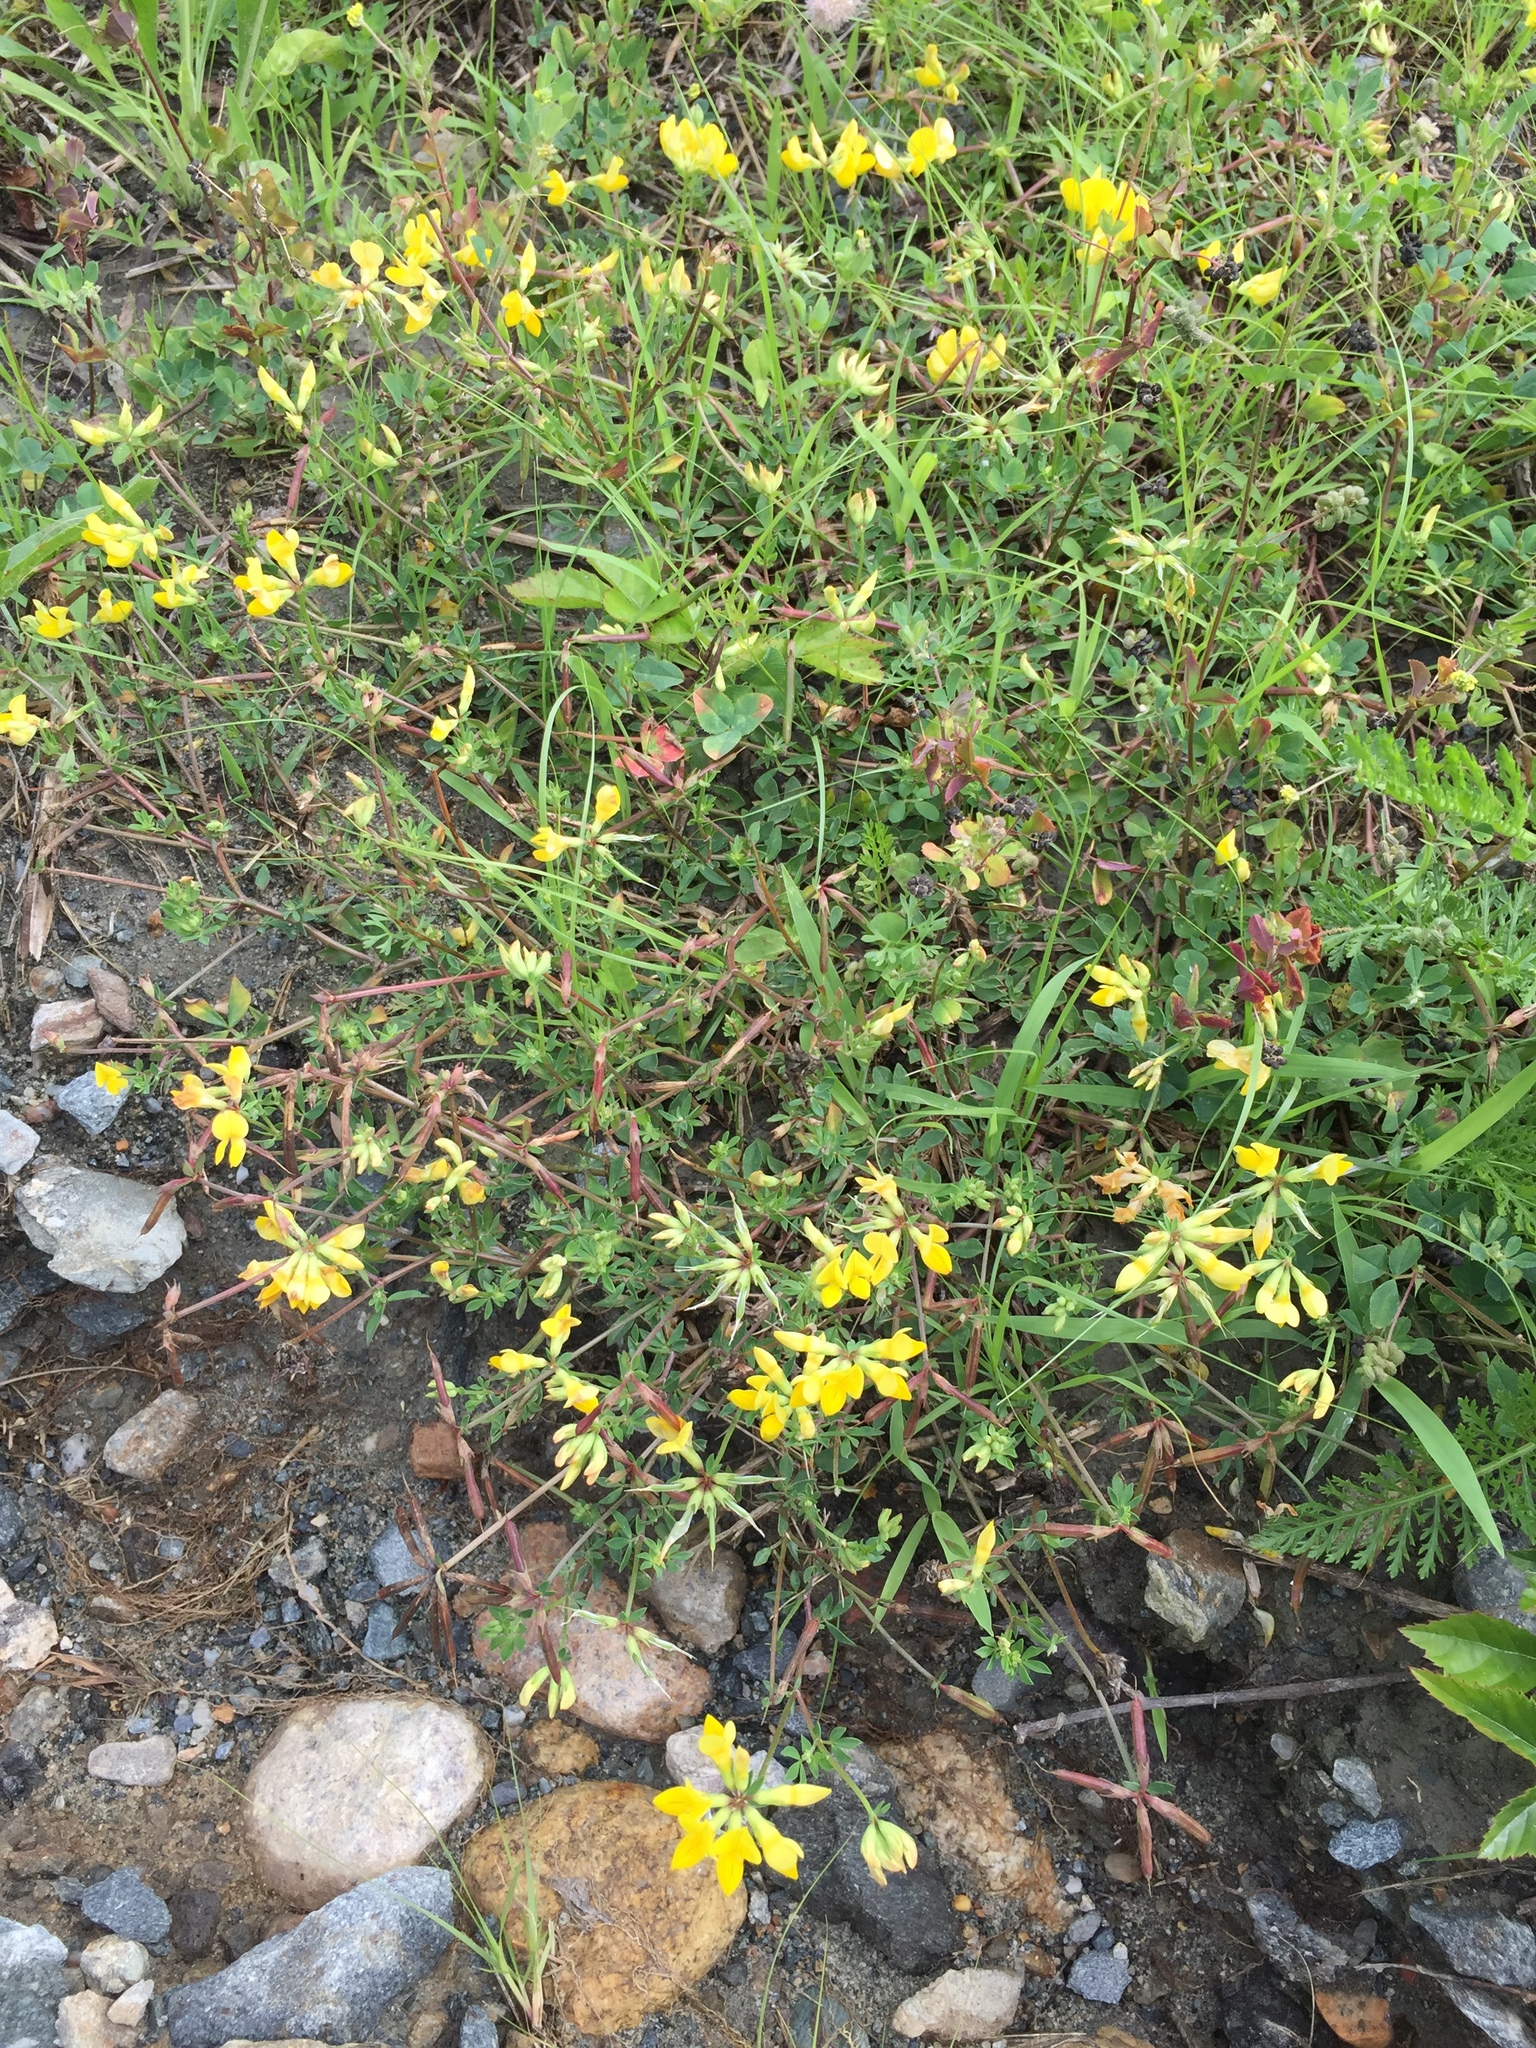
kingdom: Plantae
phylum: Tracheophyta
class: Magnoliopsida
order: Fabales
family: Fabaceae
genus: Lotus
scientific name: Lotus corniculatus
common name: Common bird's-foot-trefoil
